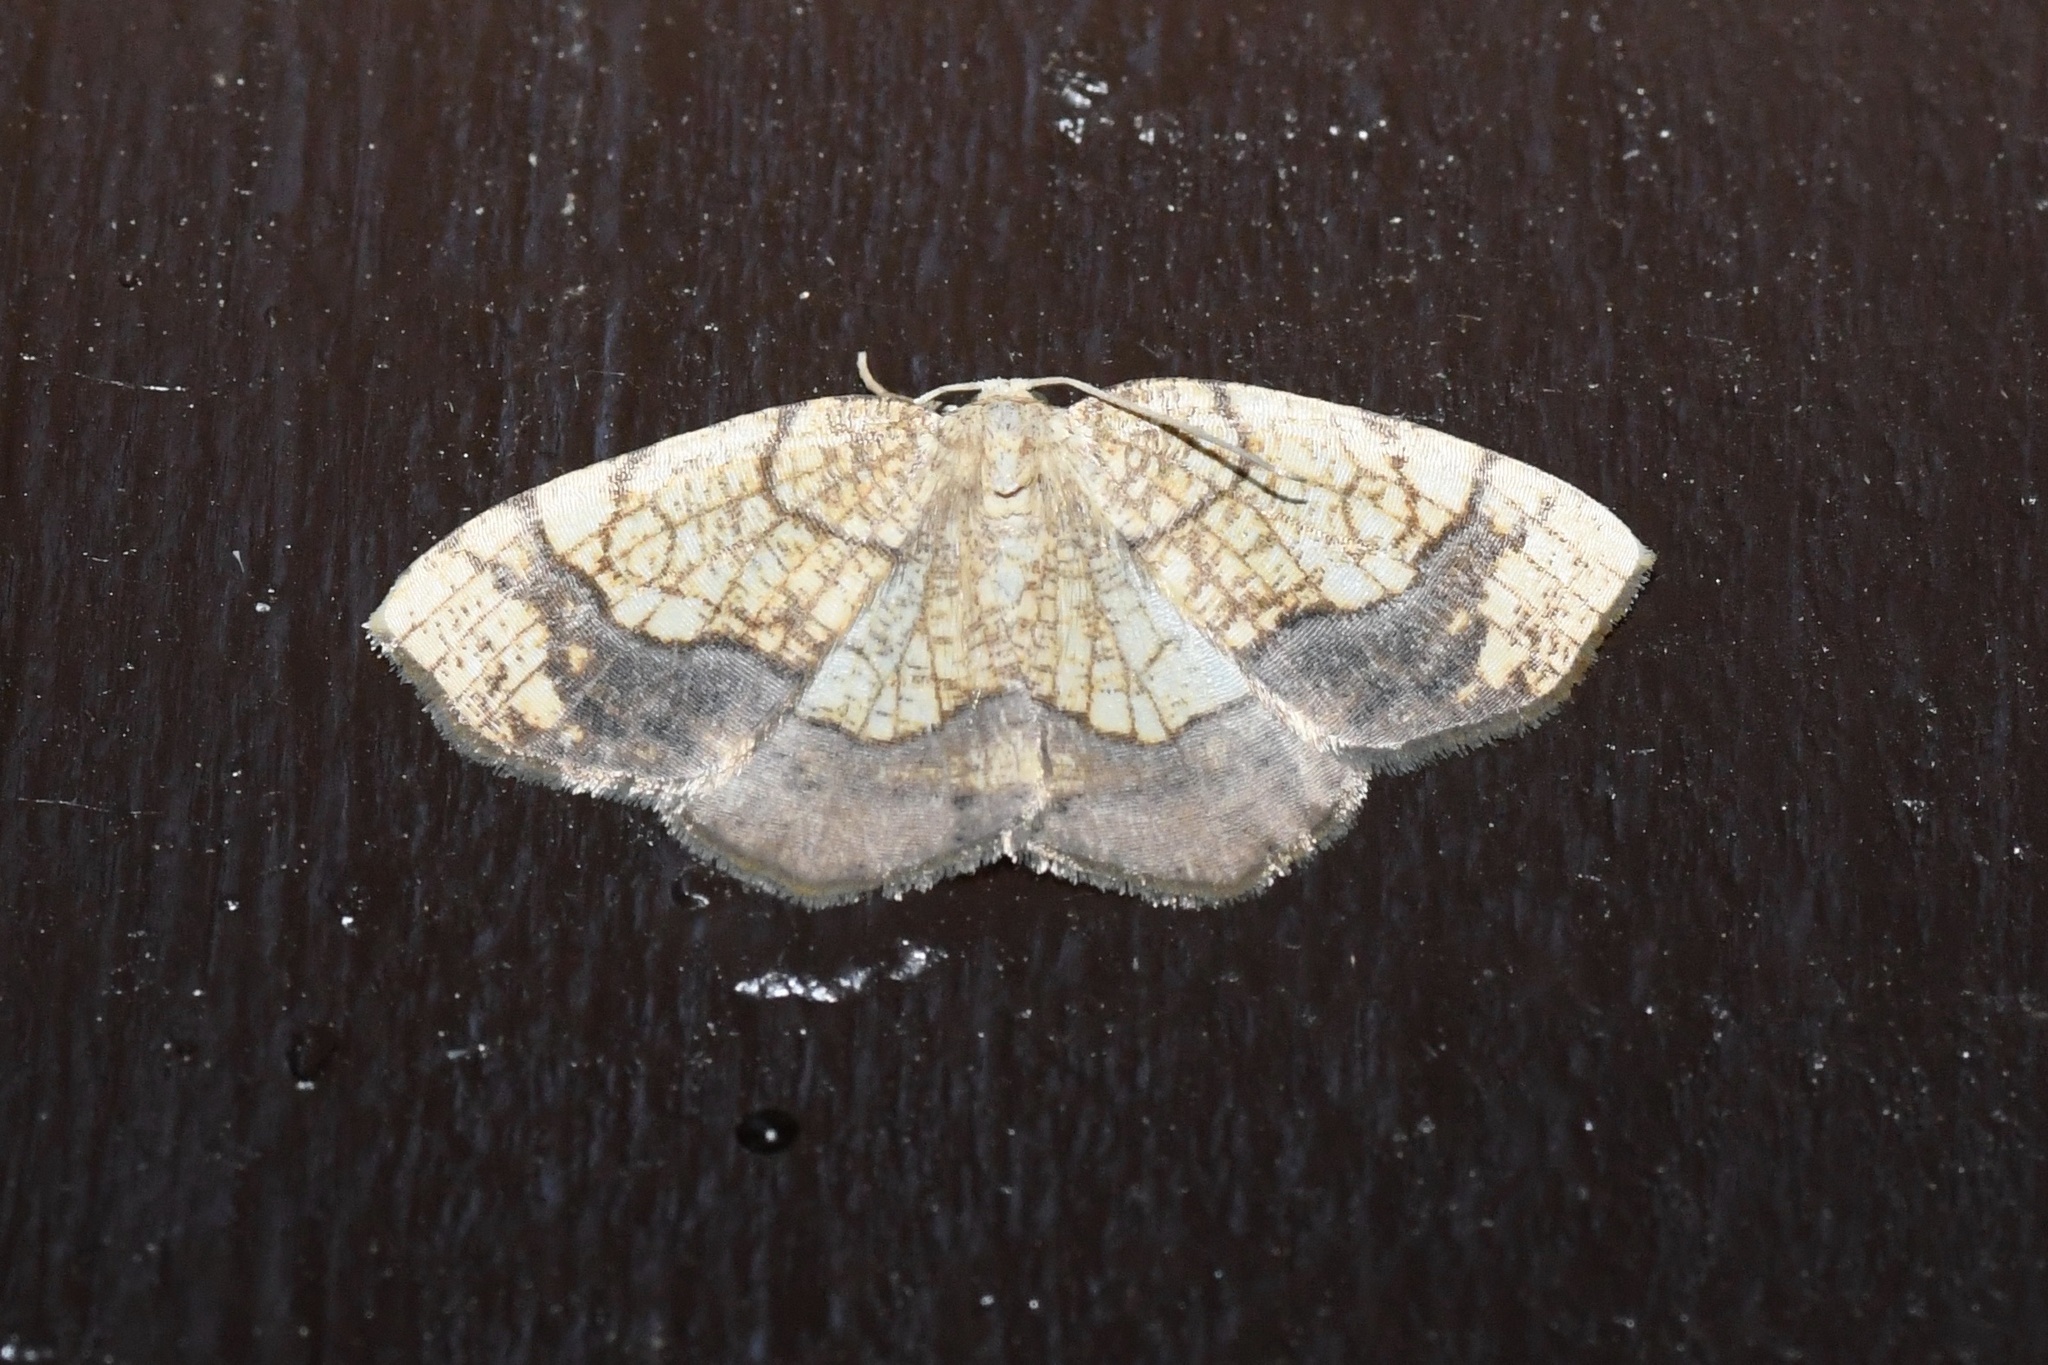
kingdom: Animalia
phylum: Arthropoda
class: Insecta
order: Lepidoptera
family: Geometridae
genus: Nematocampa
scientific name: Nematocampa resistaria
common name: Horned spanworm moth
